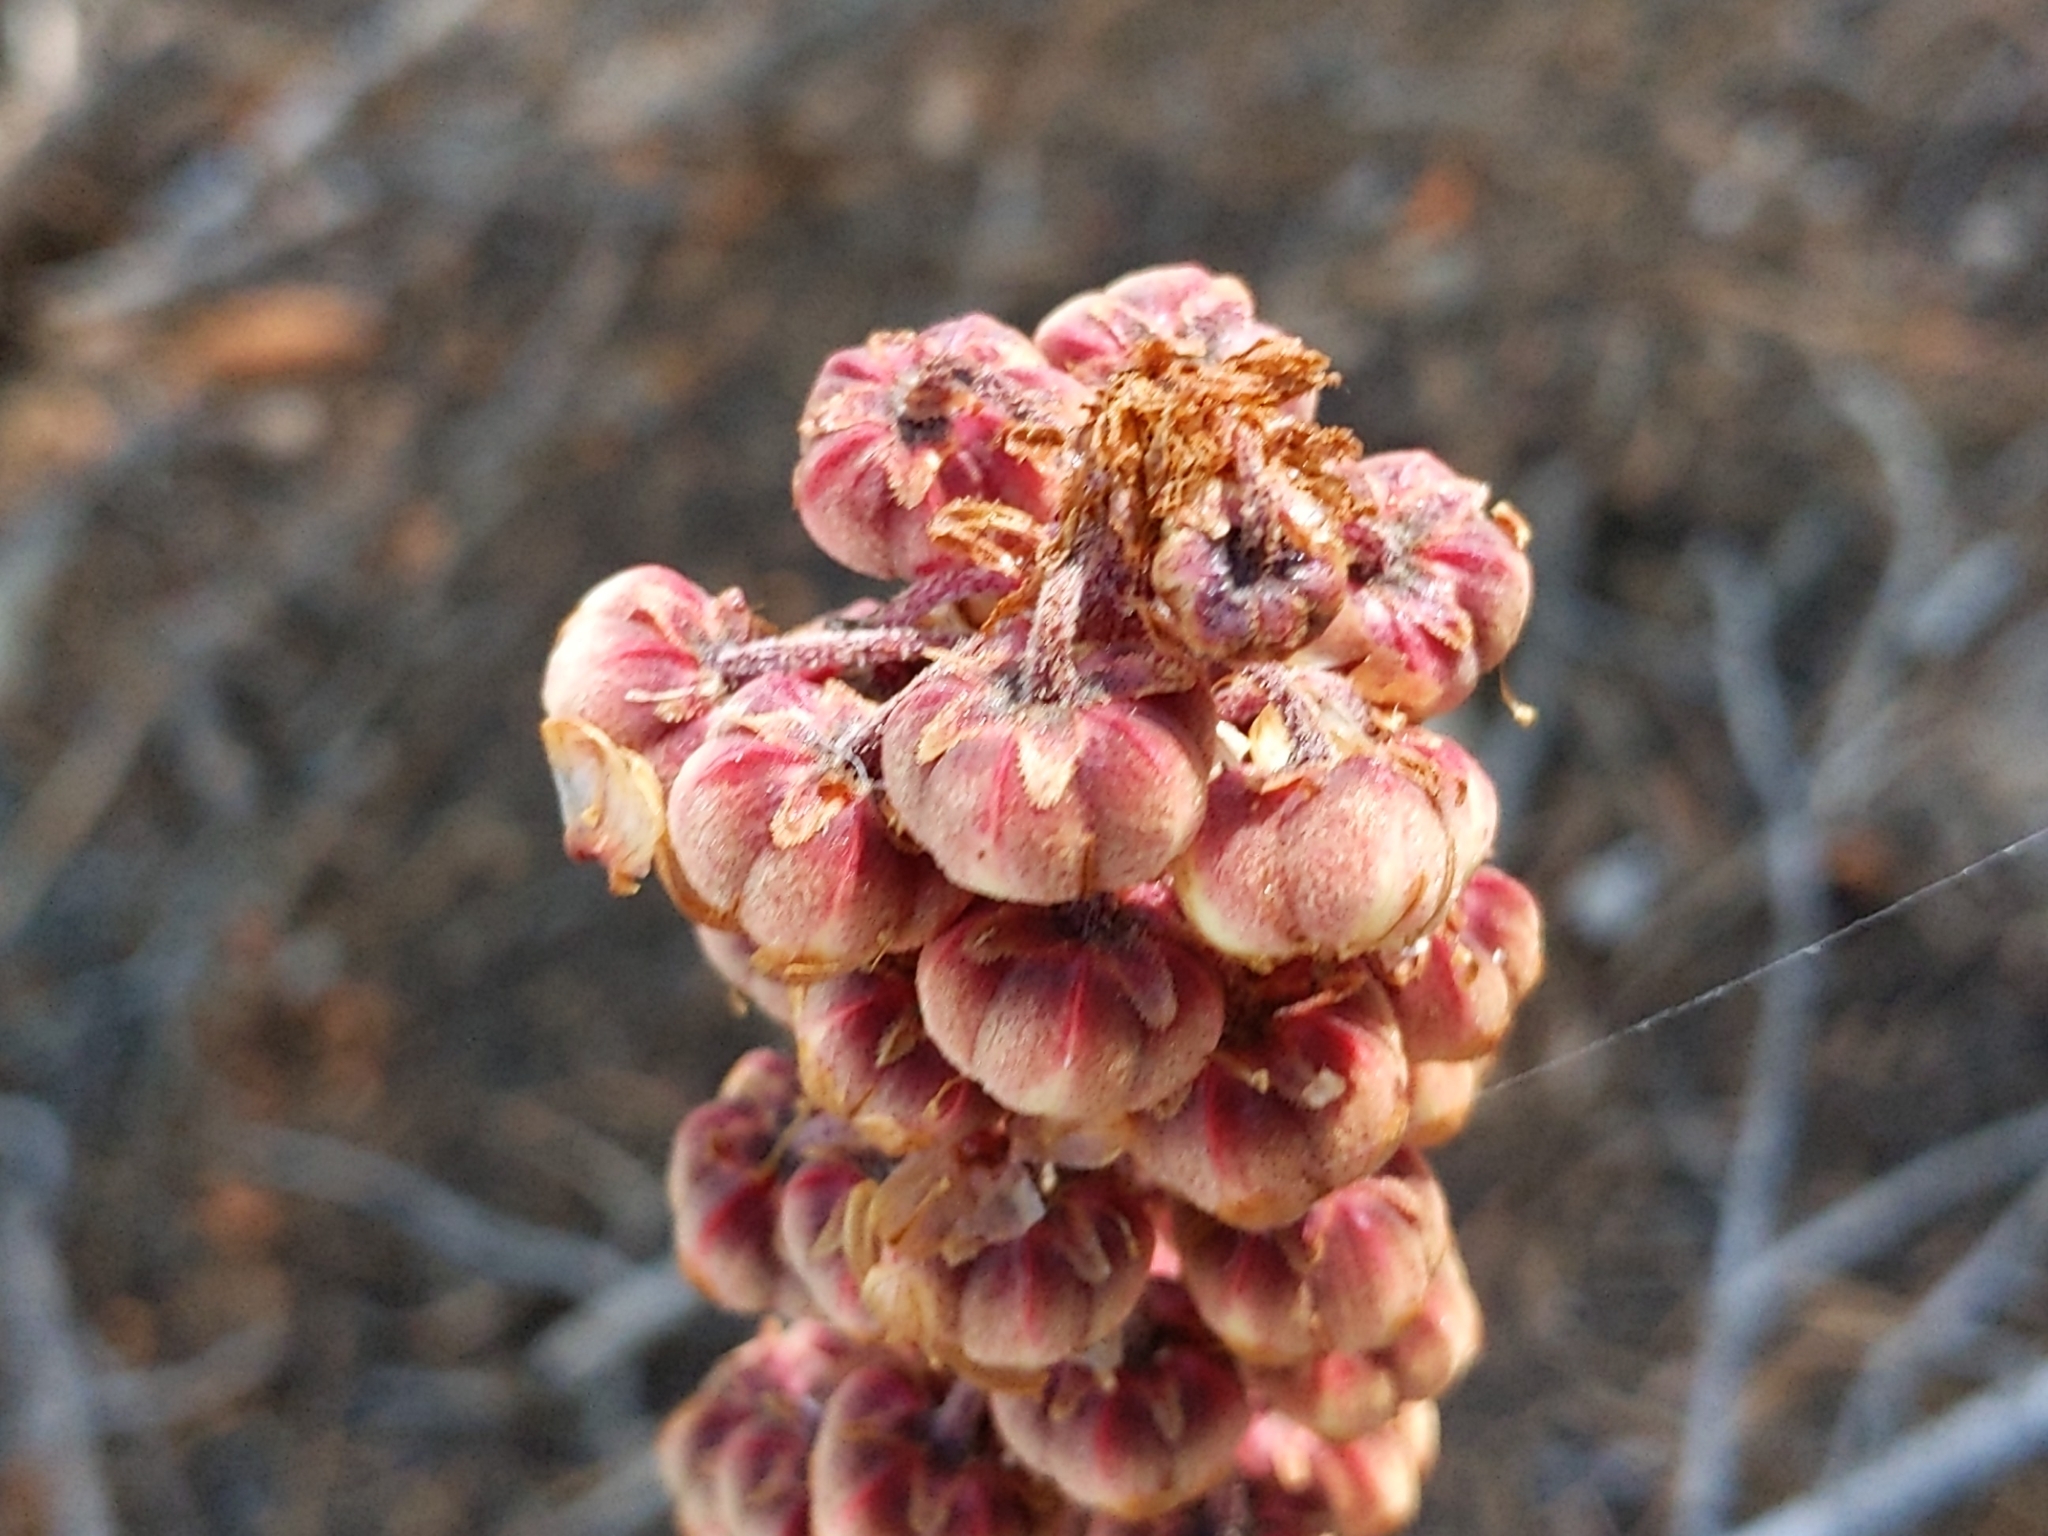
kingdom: Plantae
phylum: Tracheophyta
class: Magnoliopsida
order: Ericales
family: Ericaceae
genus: Pterospora
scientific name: Pterospora andromedea
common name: Giant bird's-nest
